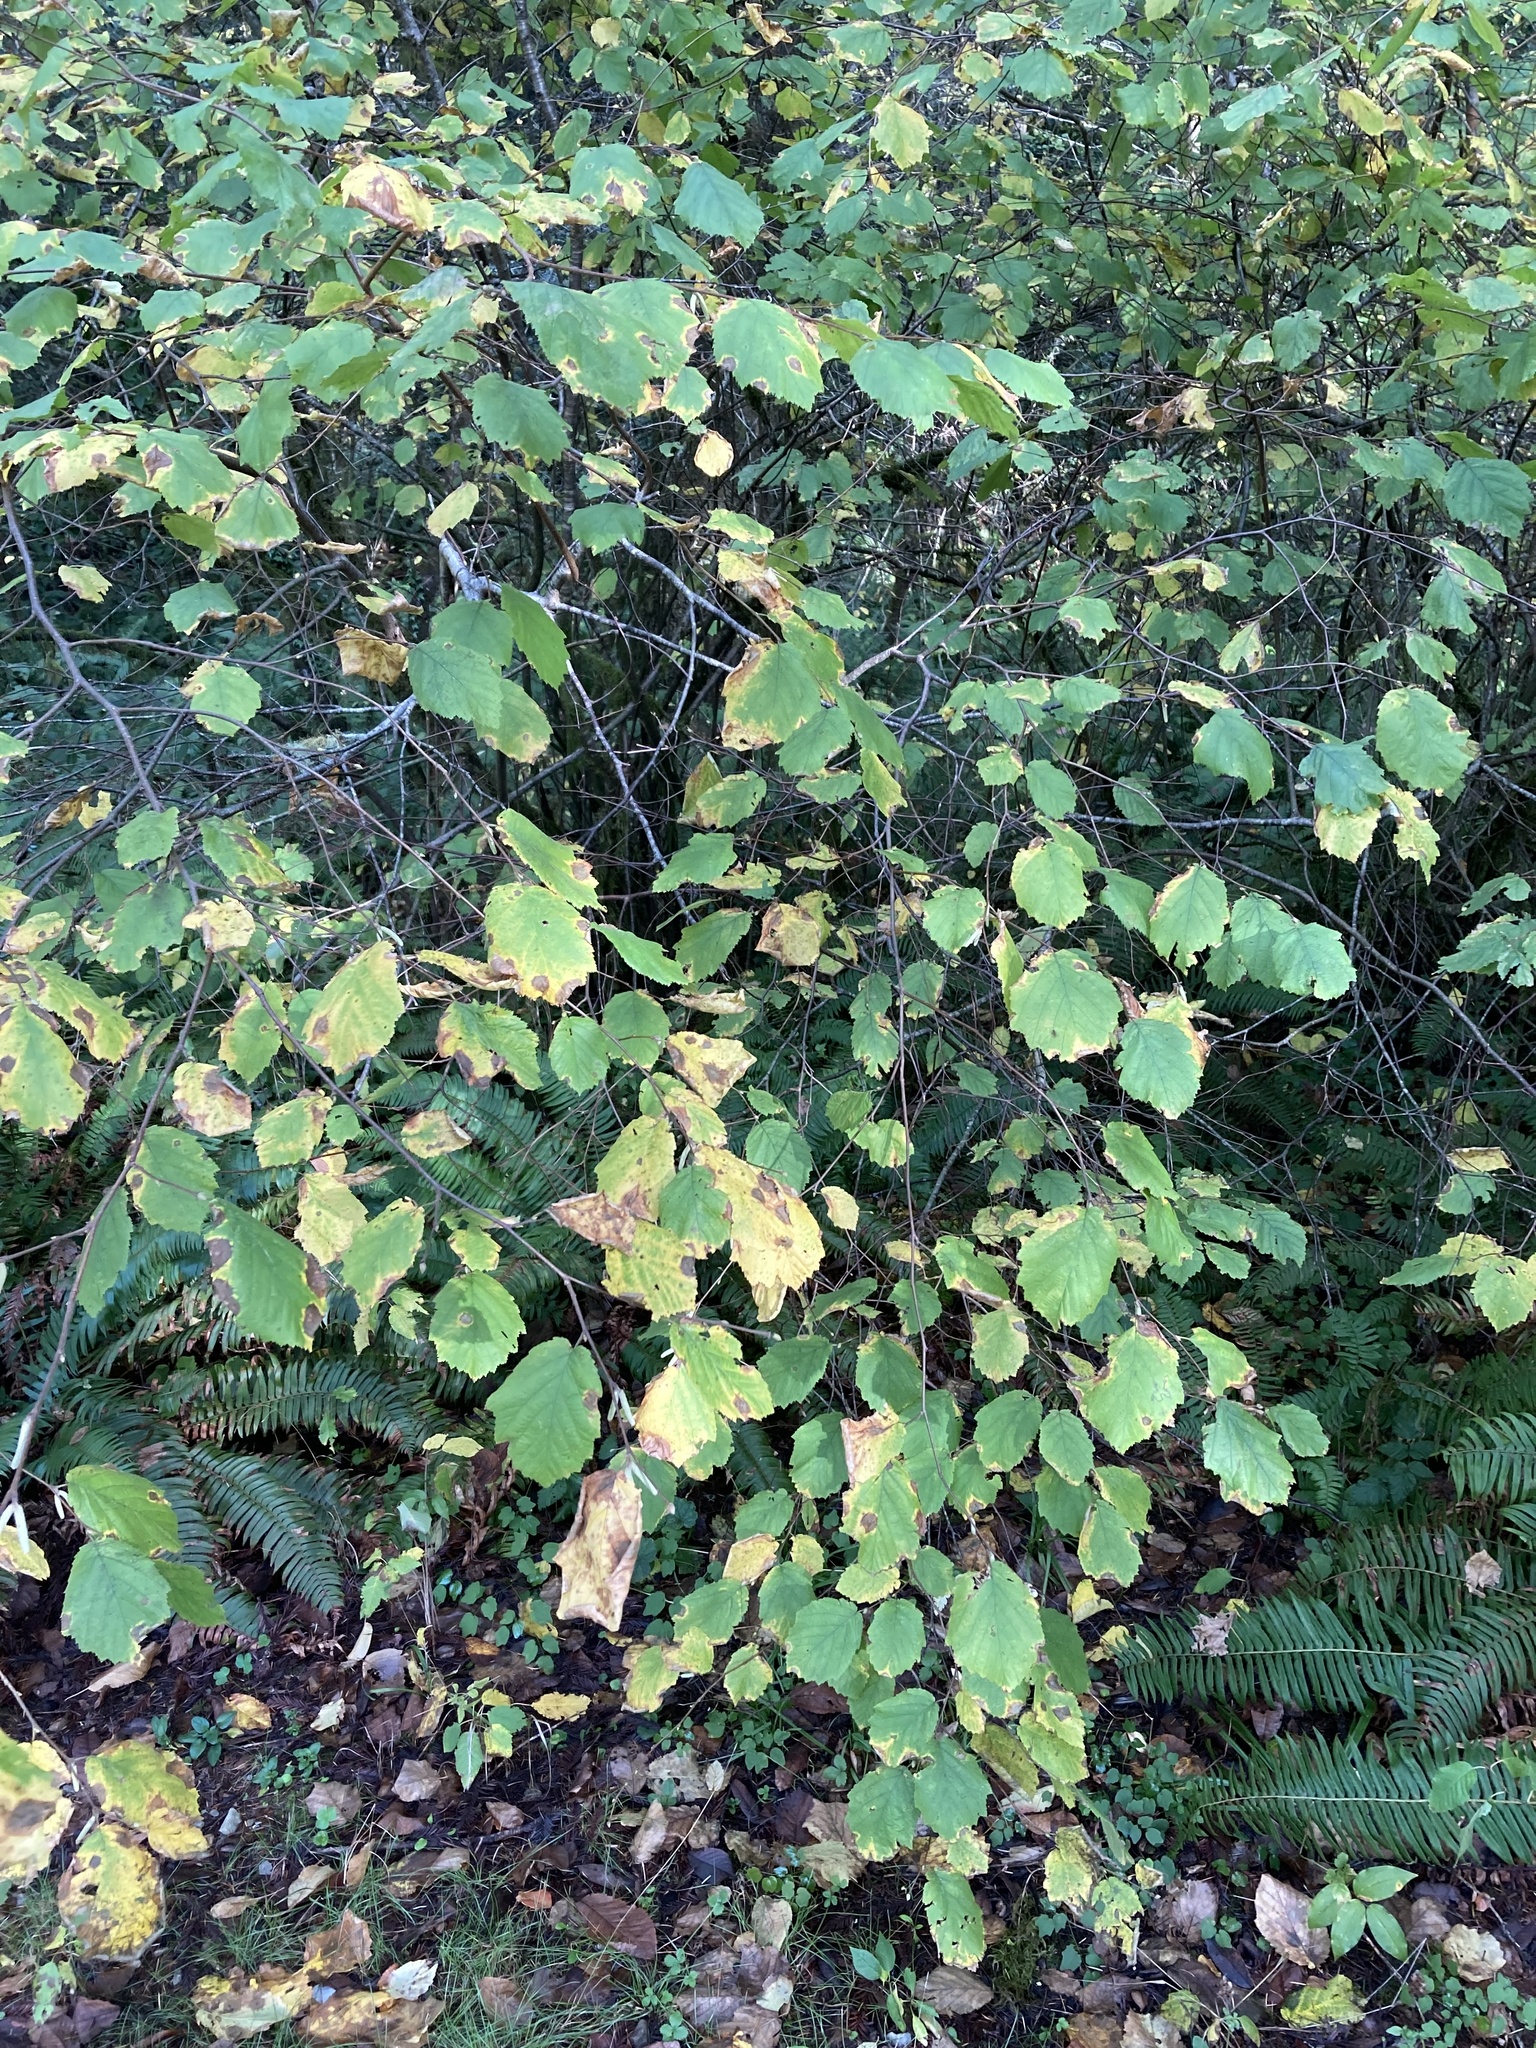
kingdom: Plantae
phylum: Tracheophyta
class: Magnoliopsida
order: Fagales
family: Betulaceae
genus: Corylus
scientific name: Corylus cornuta
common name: Beaked hazel
